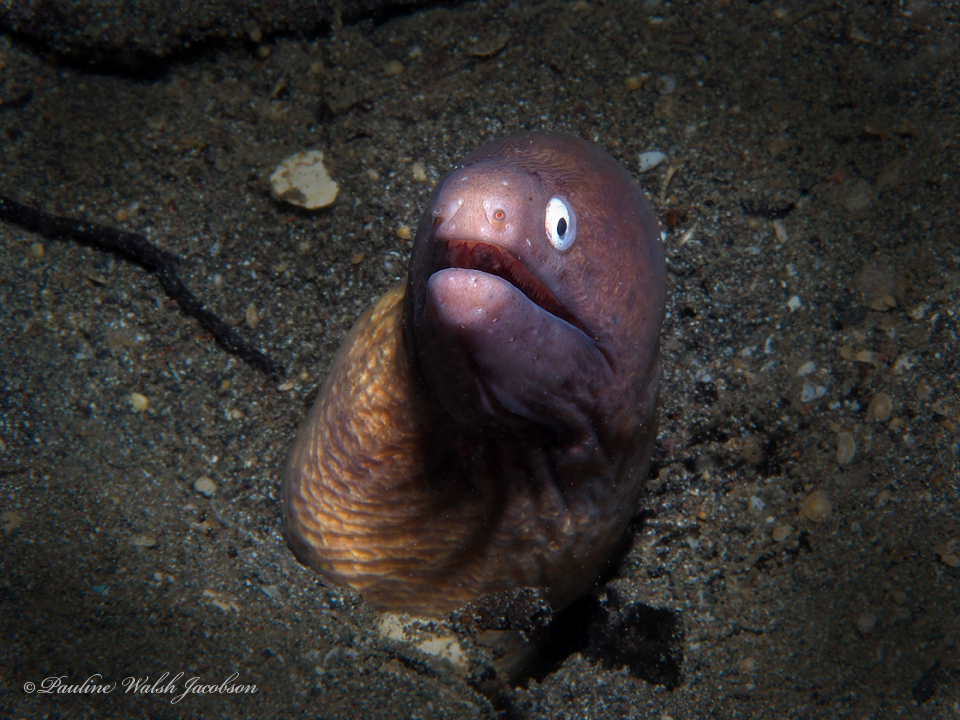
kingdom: Animalia
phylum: Chordata
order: Anguilliformes
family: Muraenidae
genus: Gymnothorax
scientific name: Gymnothorax thyrsoideus
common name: Greyface moray
